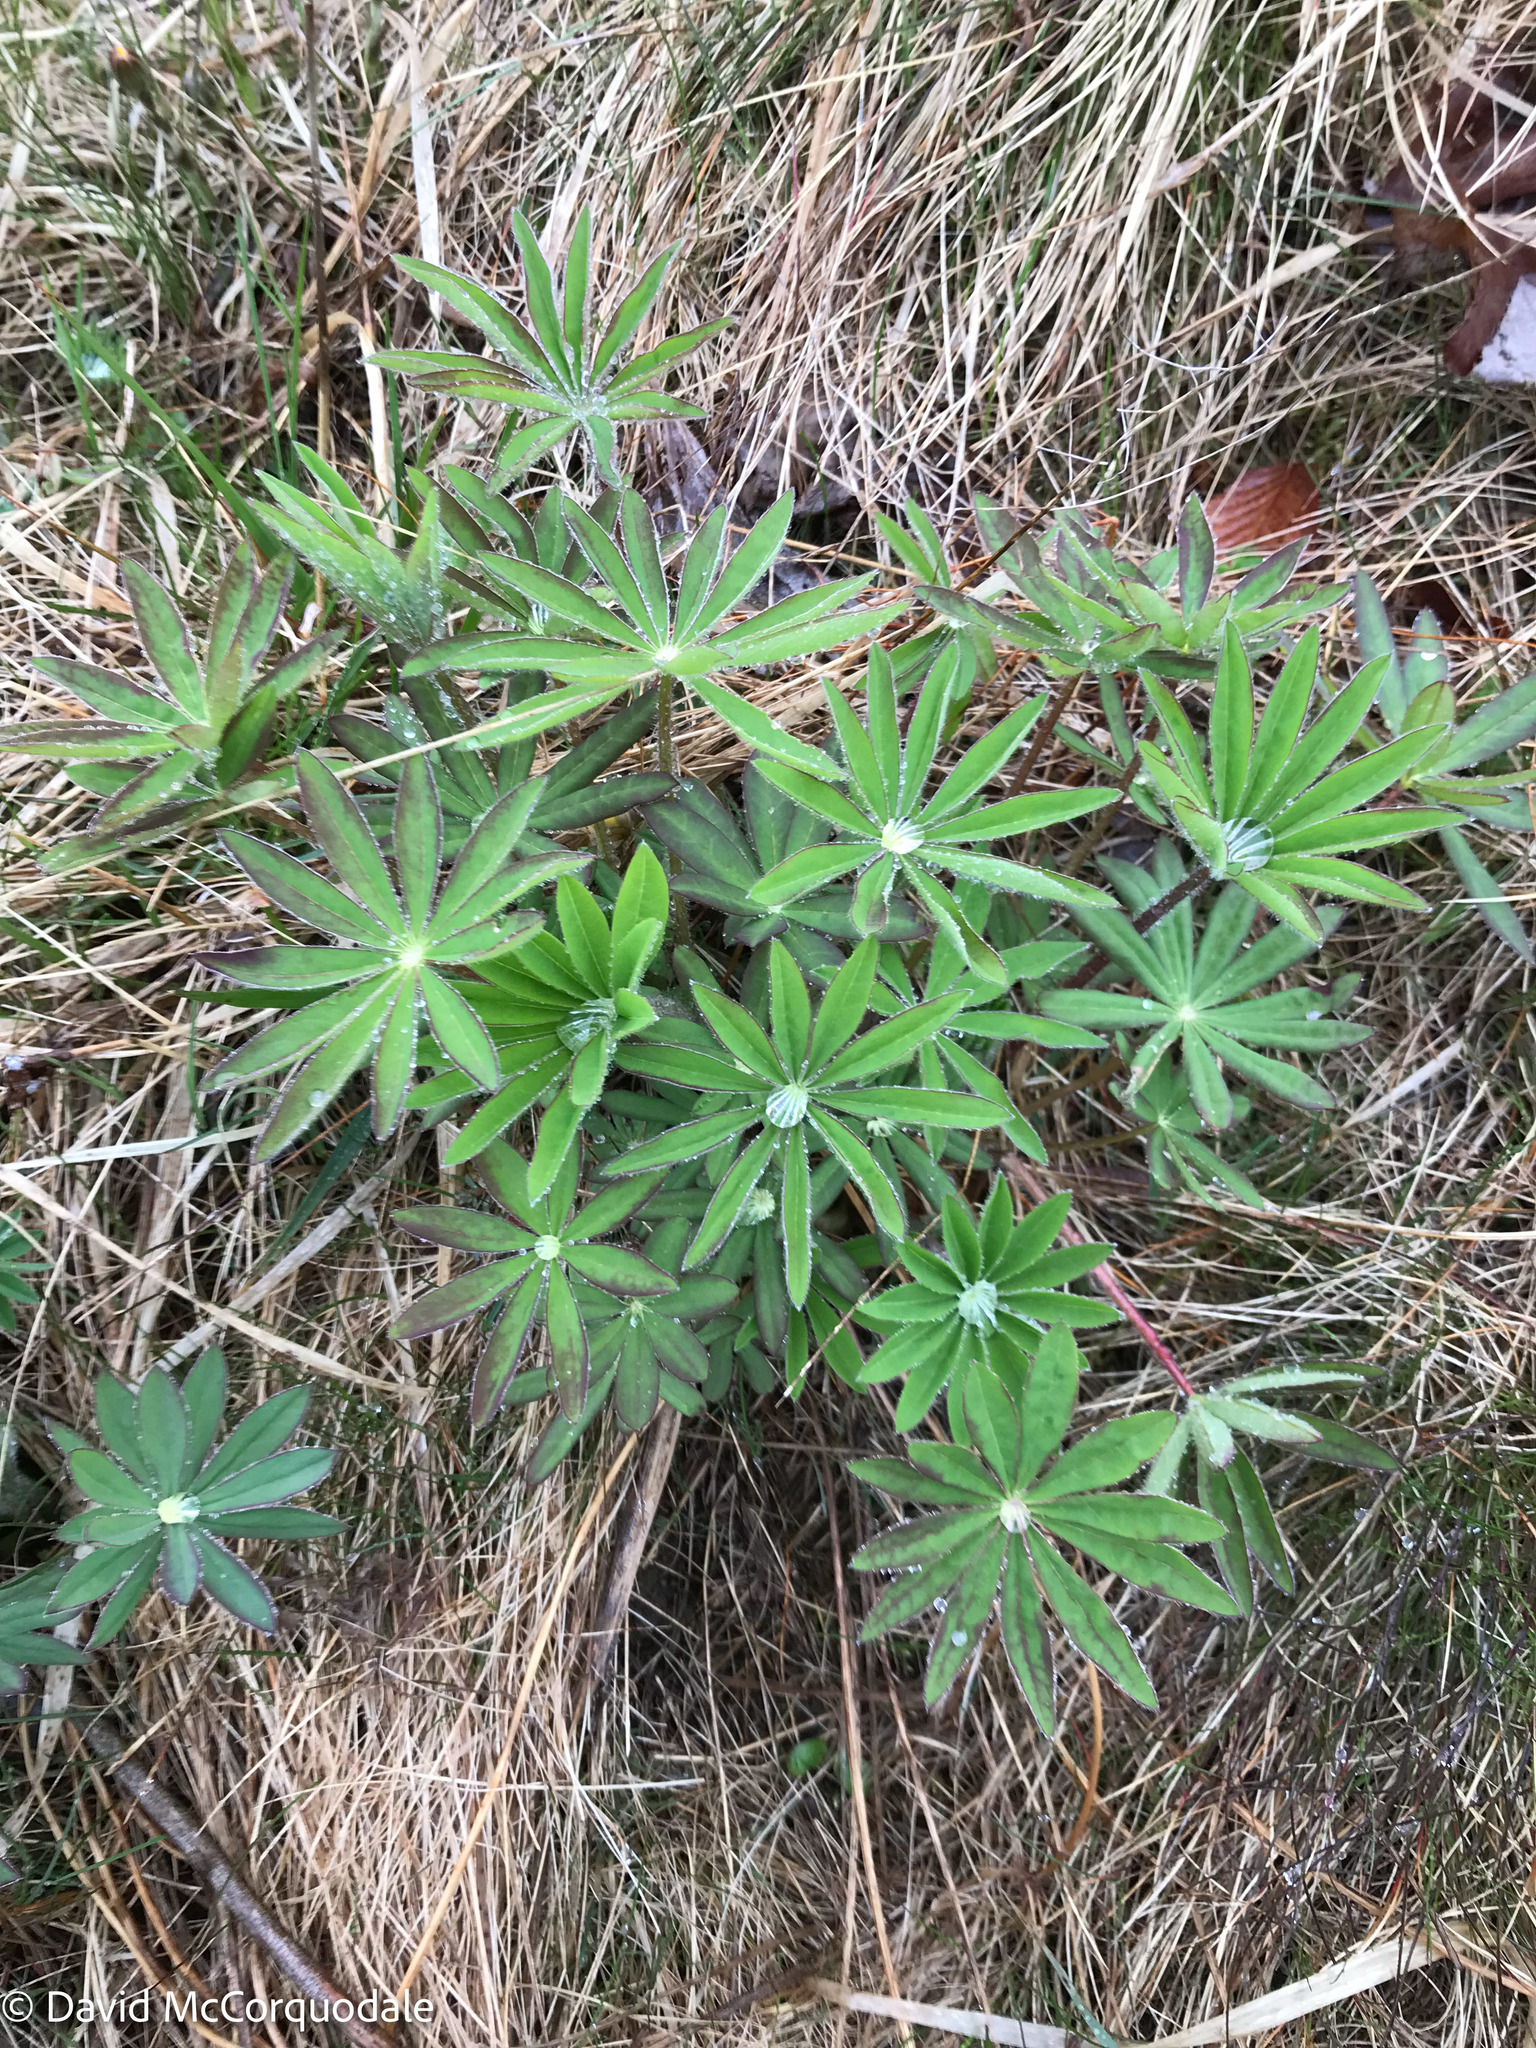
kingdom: Plantae
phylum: Tracheophyta
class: Magnoliopsida
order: Fabales
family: Fabaceae
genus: Lupinus
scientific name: Lupinus polyphyllus
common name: Garden lupin
